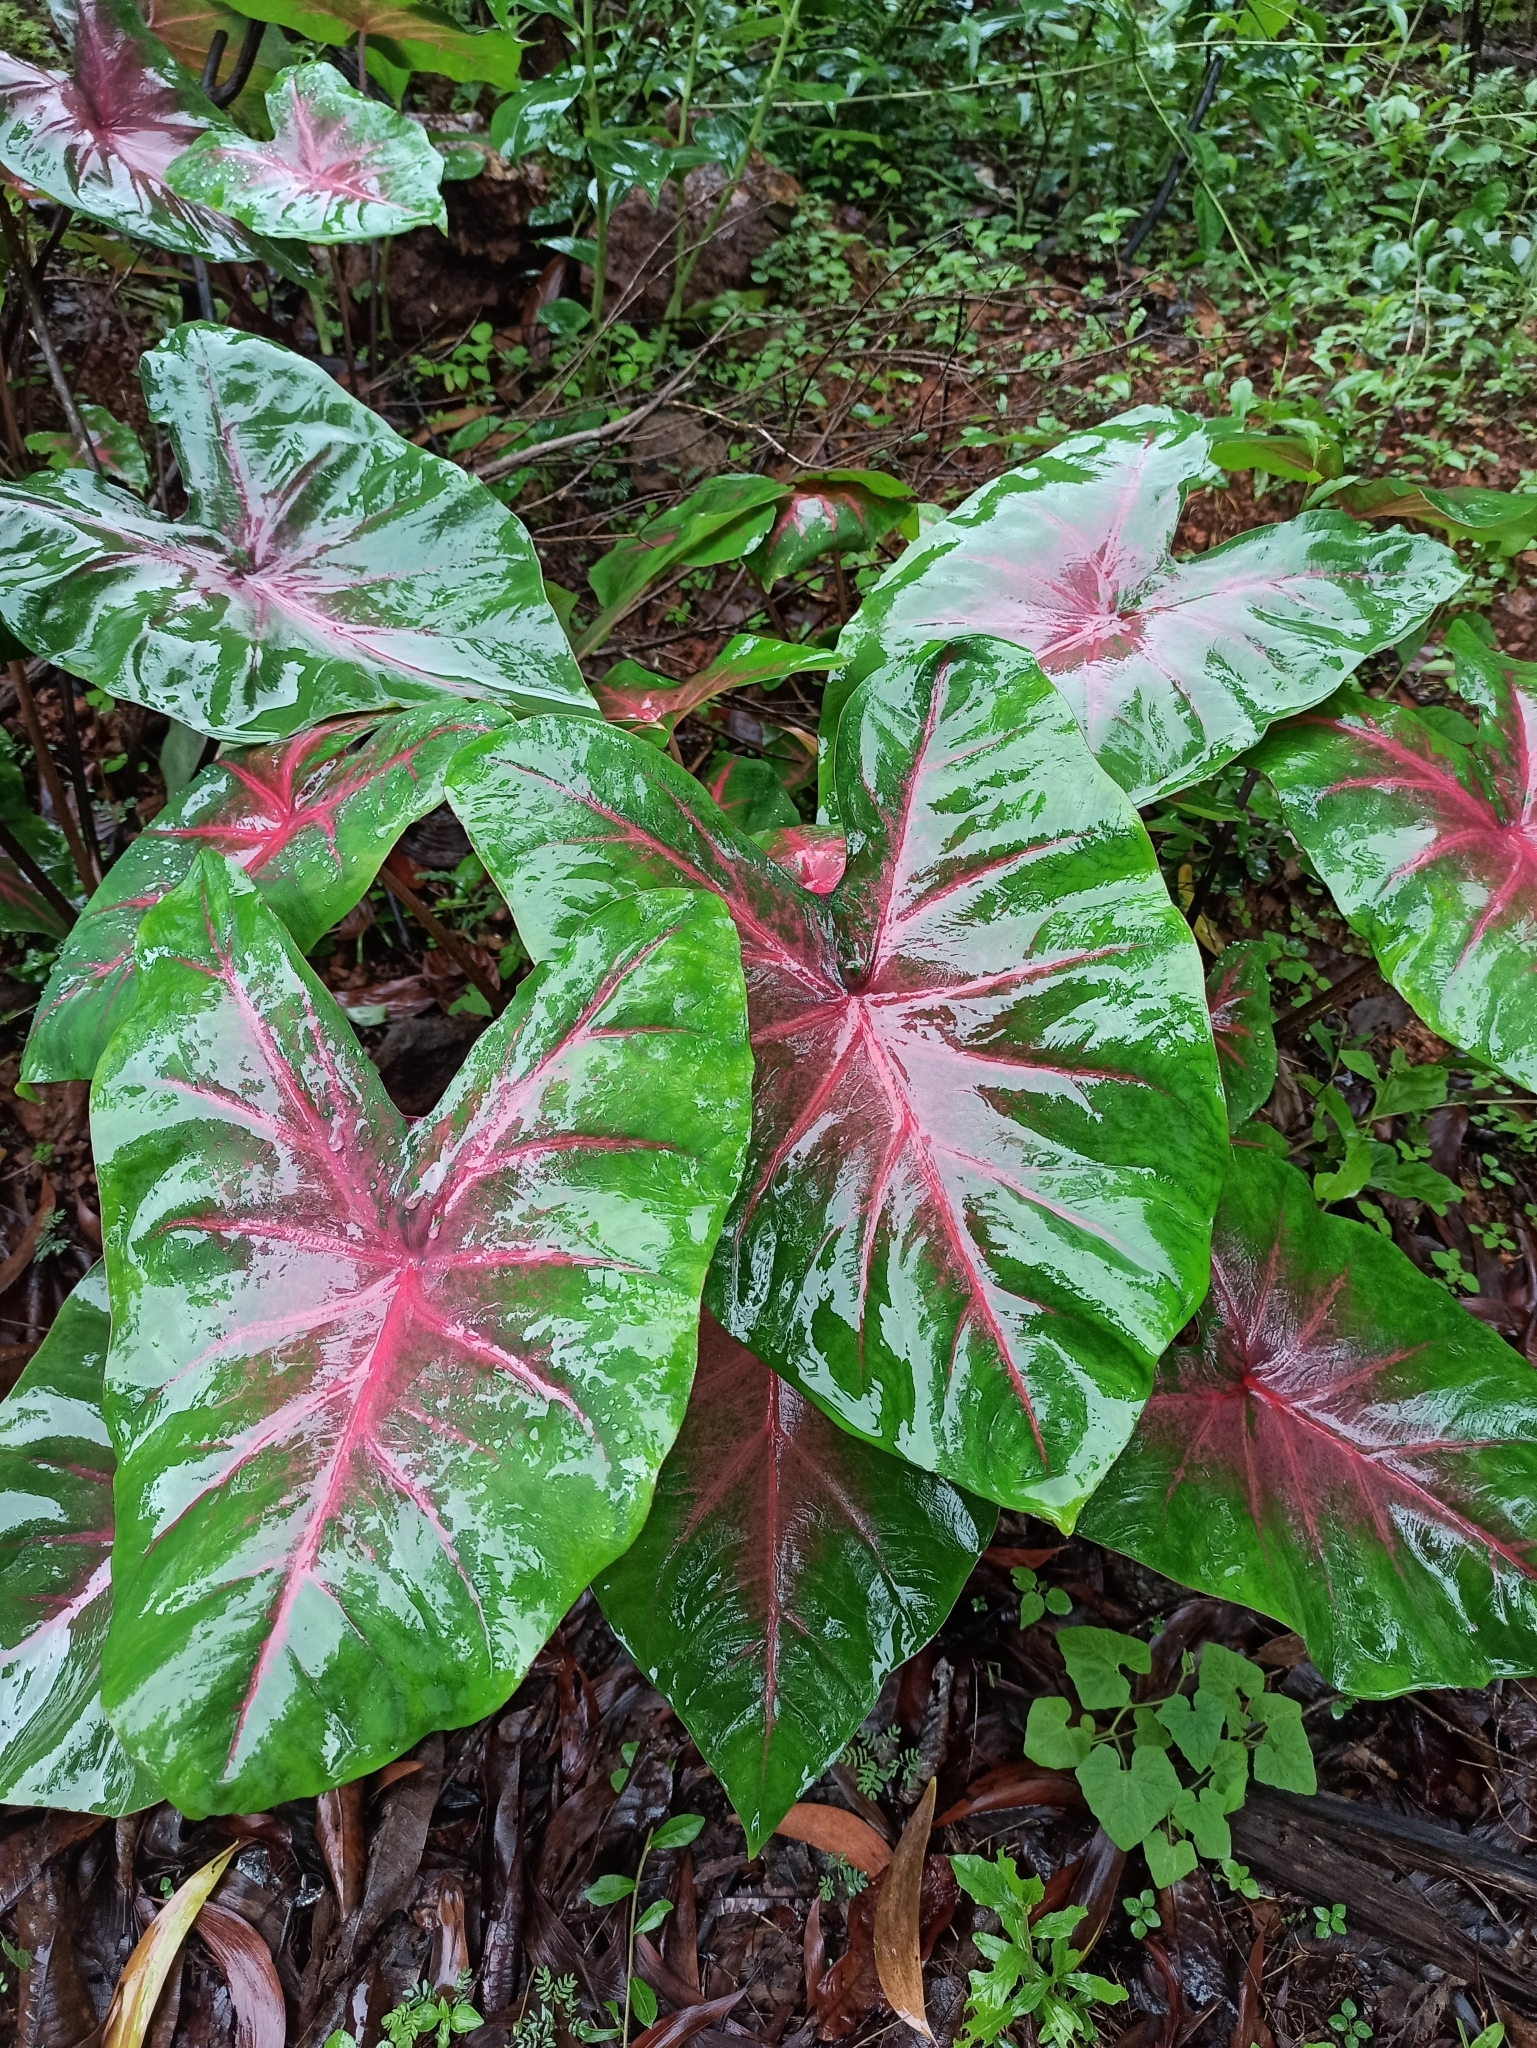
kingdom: Plantae
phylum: Tracheophyta
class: Liliopsida
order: Alismatales
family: Araceae
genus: Caladium
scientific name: Caladium bicolor
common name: Artist's pallet
